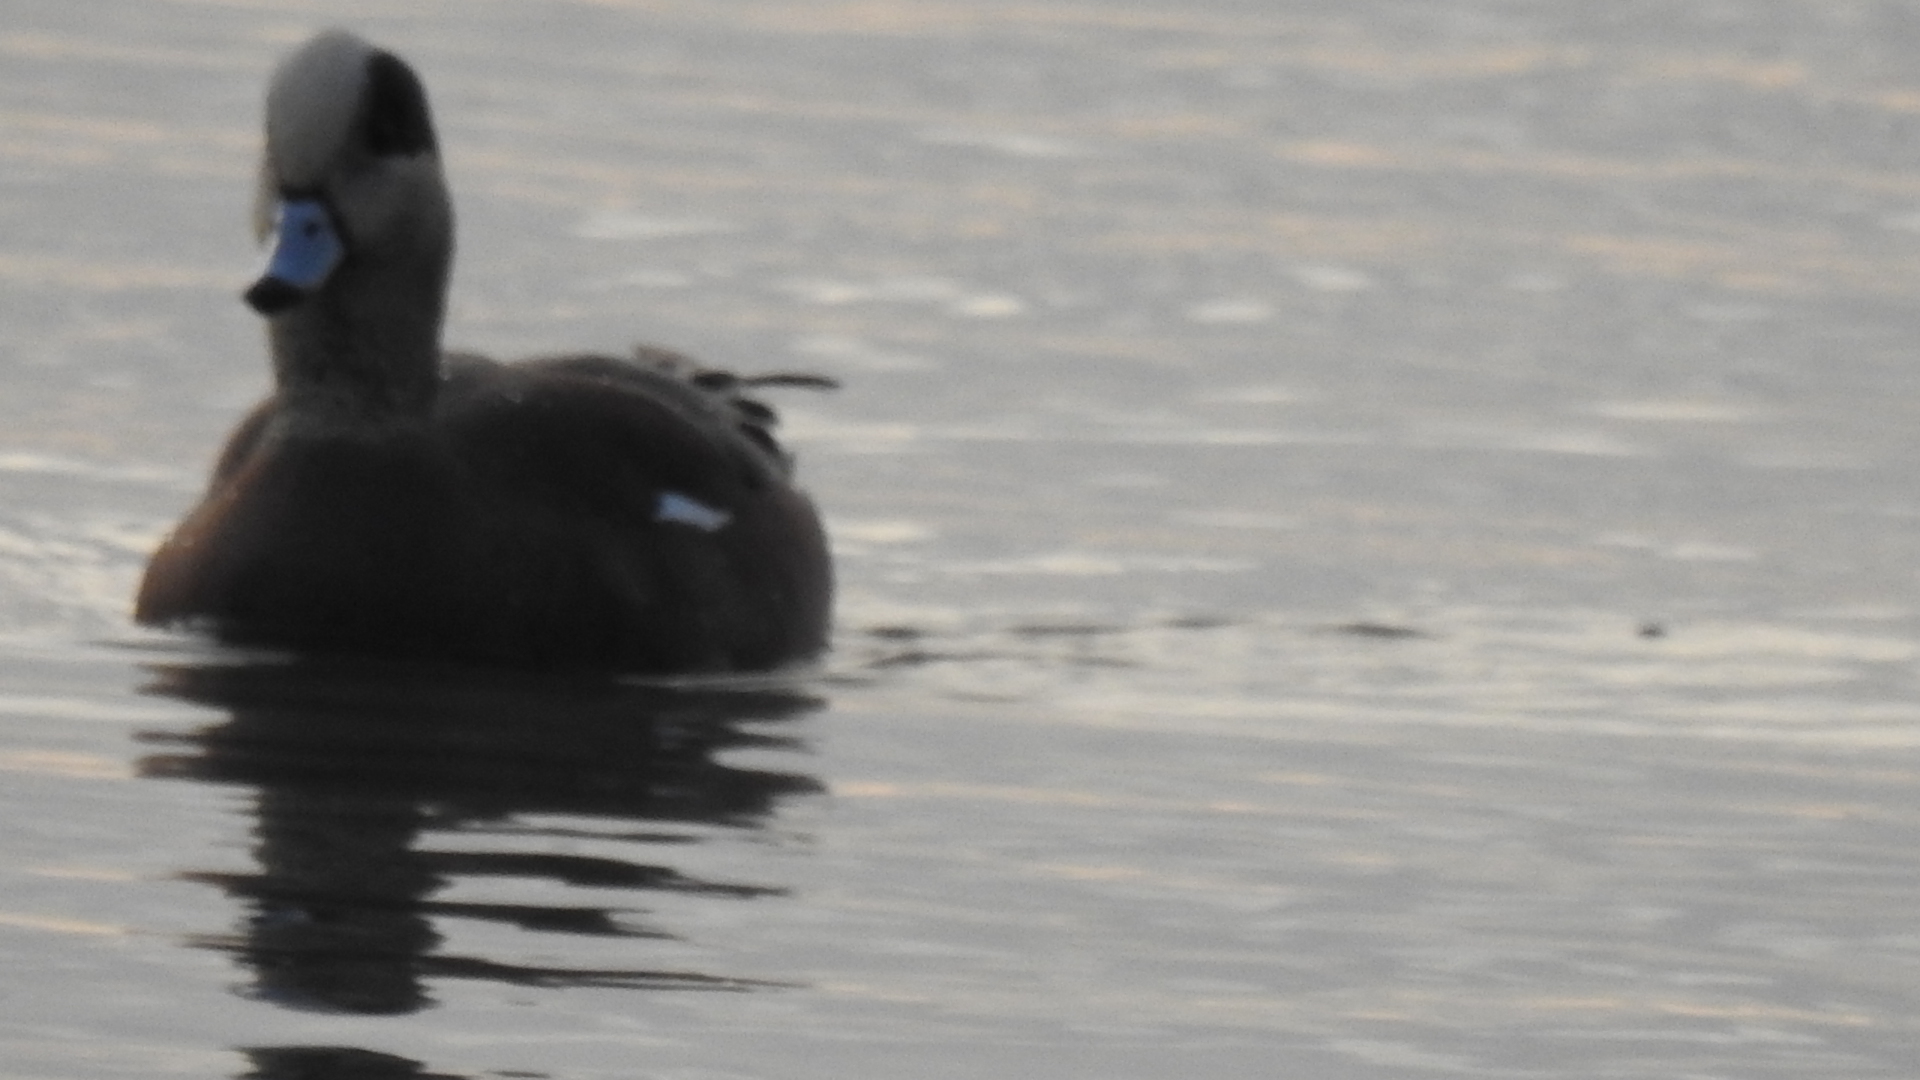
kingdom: Animalia
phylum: Chordata
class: Aves
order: Anseriformes
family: Anatidae
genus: Mareca
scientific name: Mareca americana
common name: American wigeon
